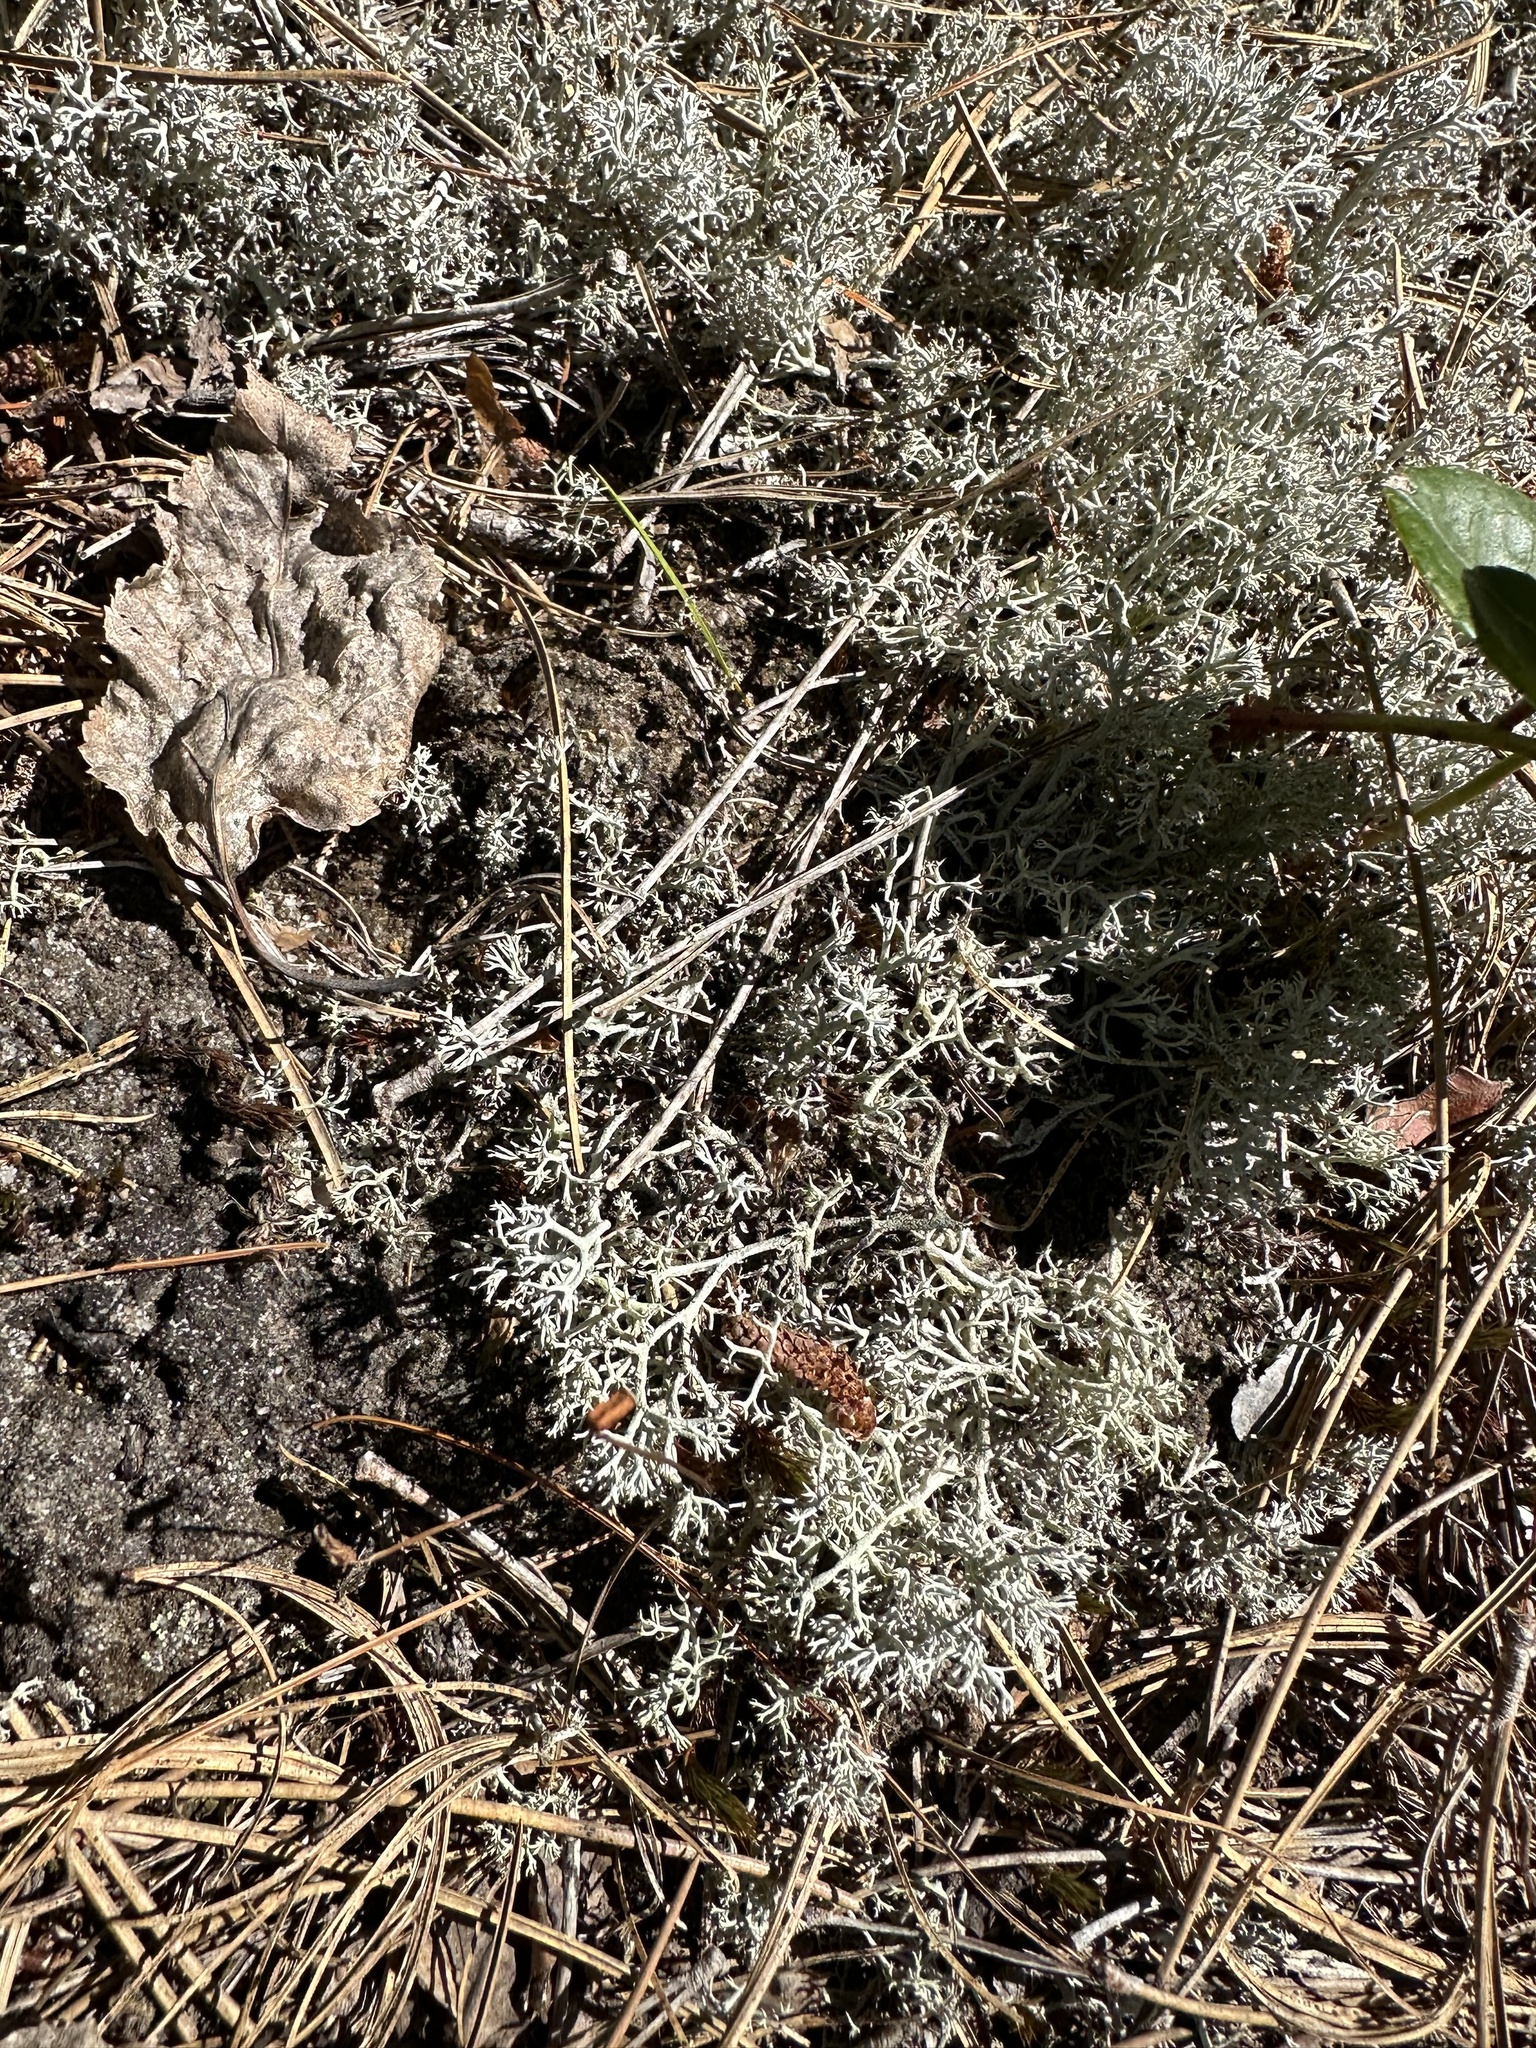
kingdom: Fungi
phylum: Ascomycota
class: Lecanoromycetes
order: Lecanorales
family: Cladoniaceae
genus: Cladonia
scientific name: Cladonia rangiferina
